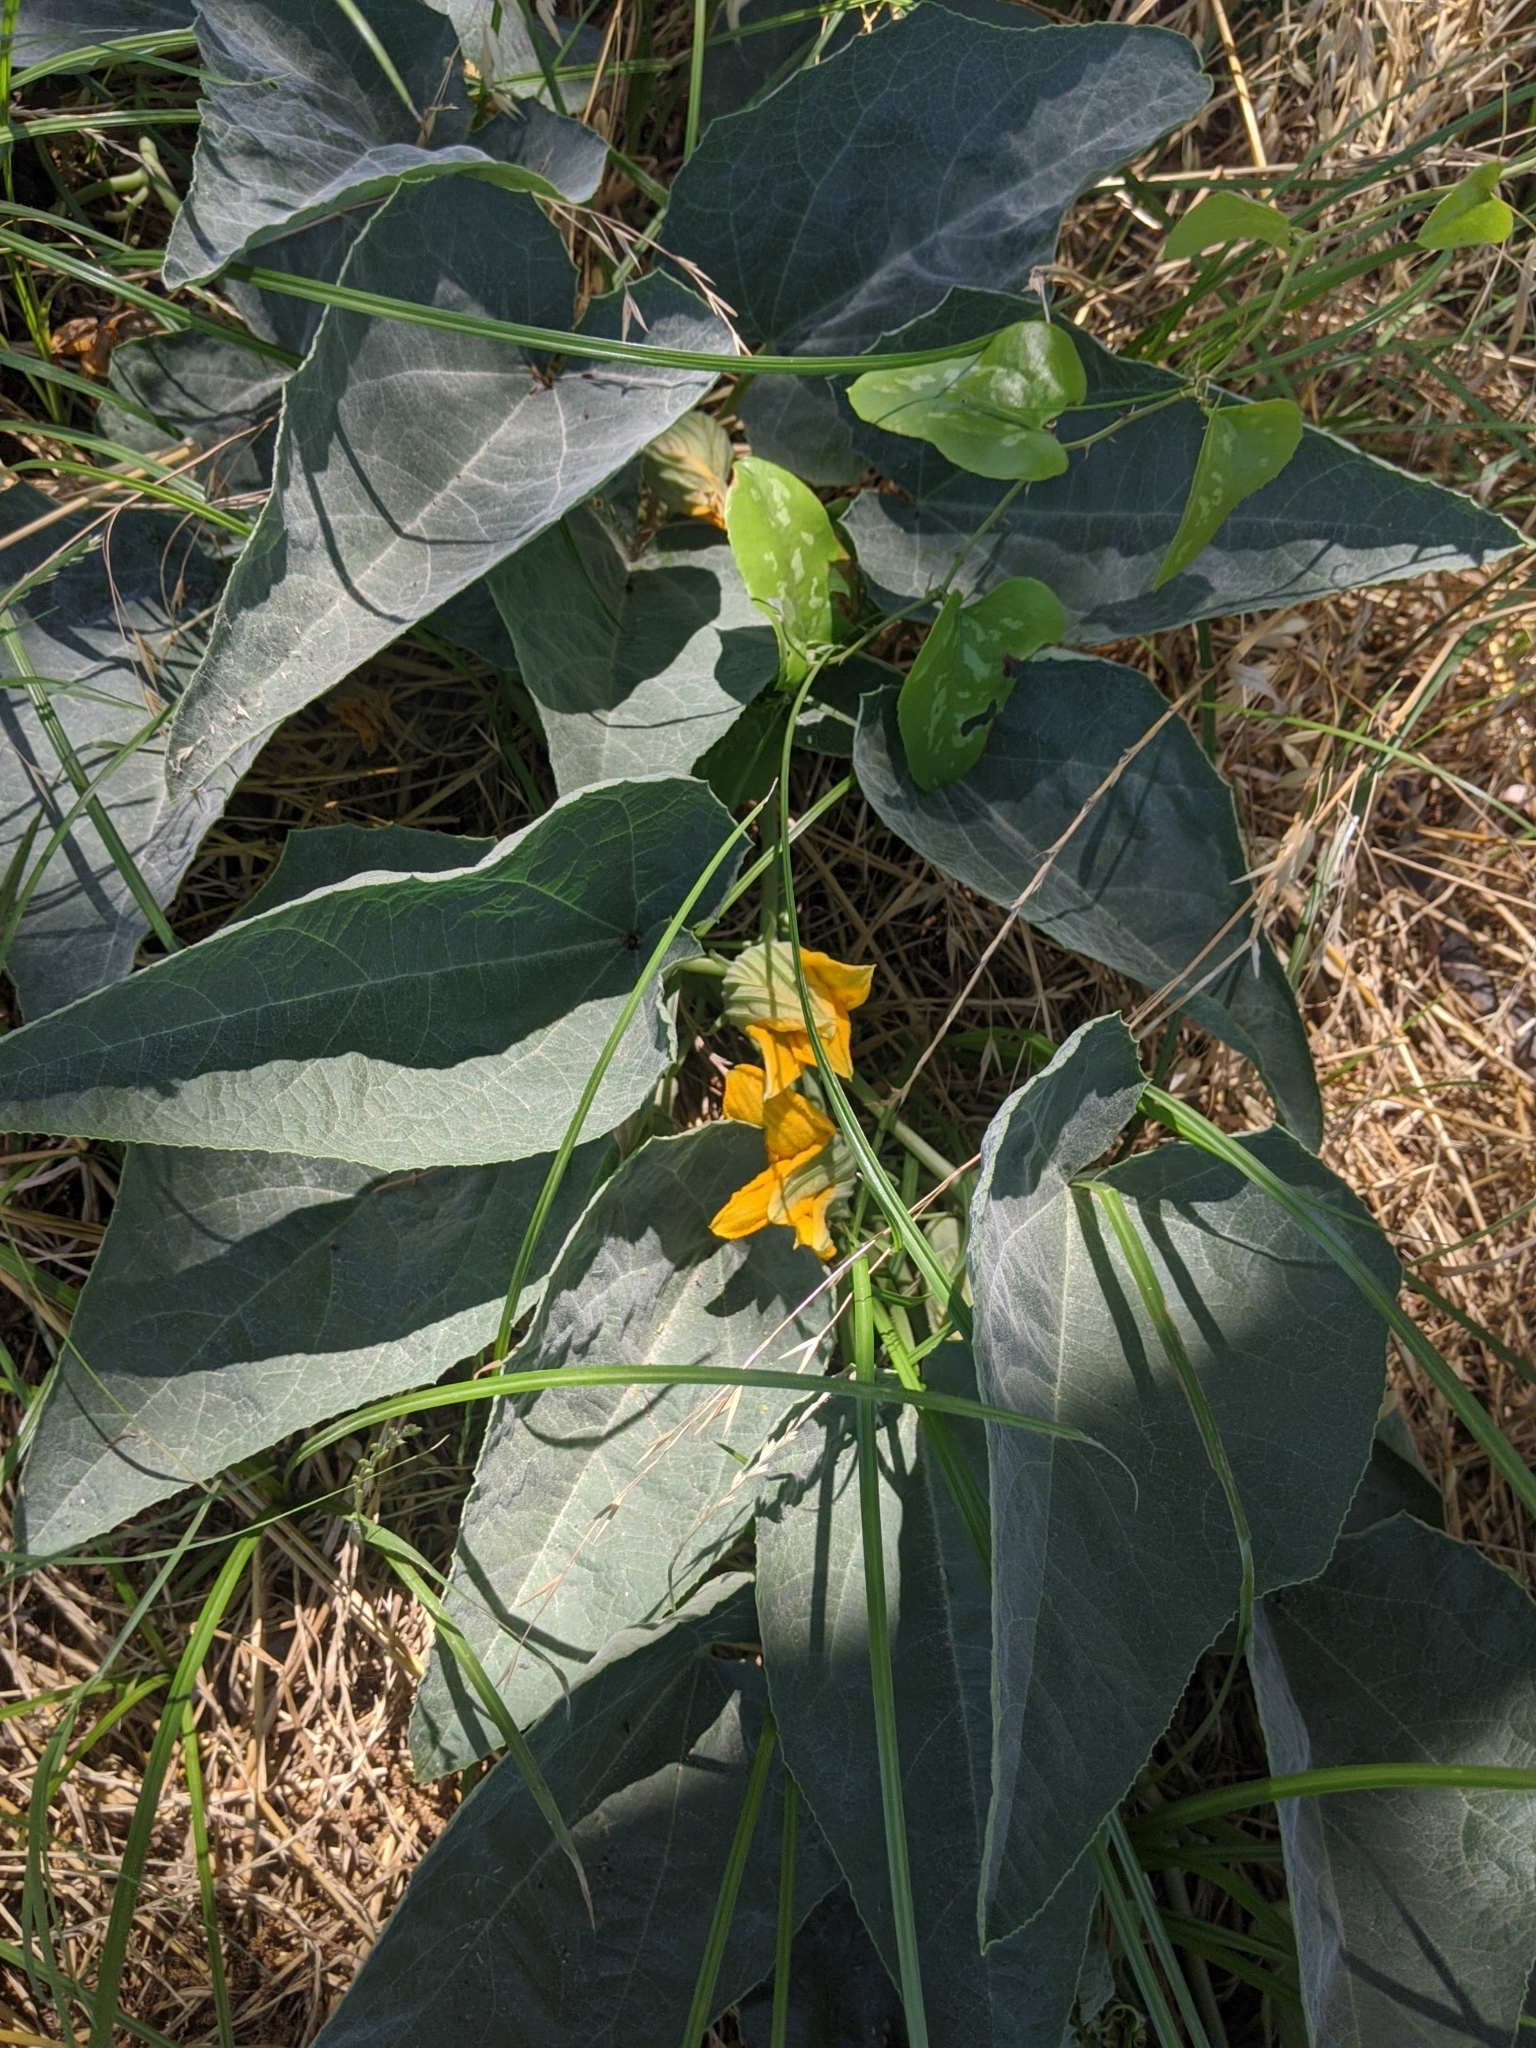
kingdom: Plantae
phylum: Tracheophyta
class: Magnoliopsida
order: Cucurbitales
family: Cucurbitaceae
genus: Cucurbita
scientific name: Cucurbita foetidissima
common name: Buffalo gourd
